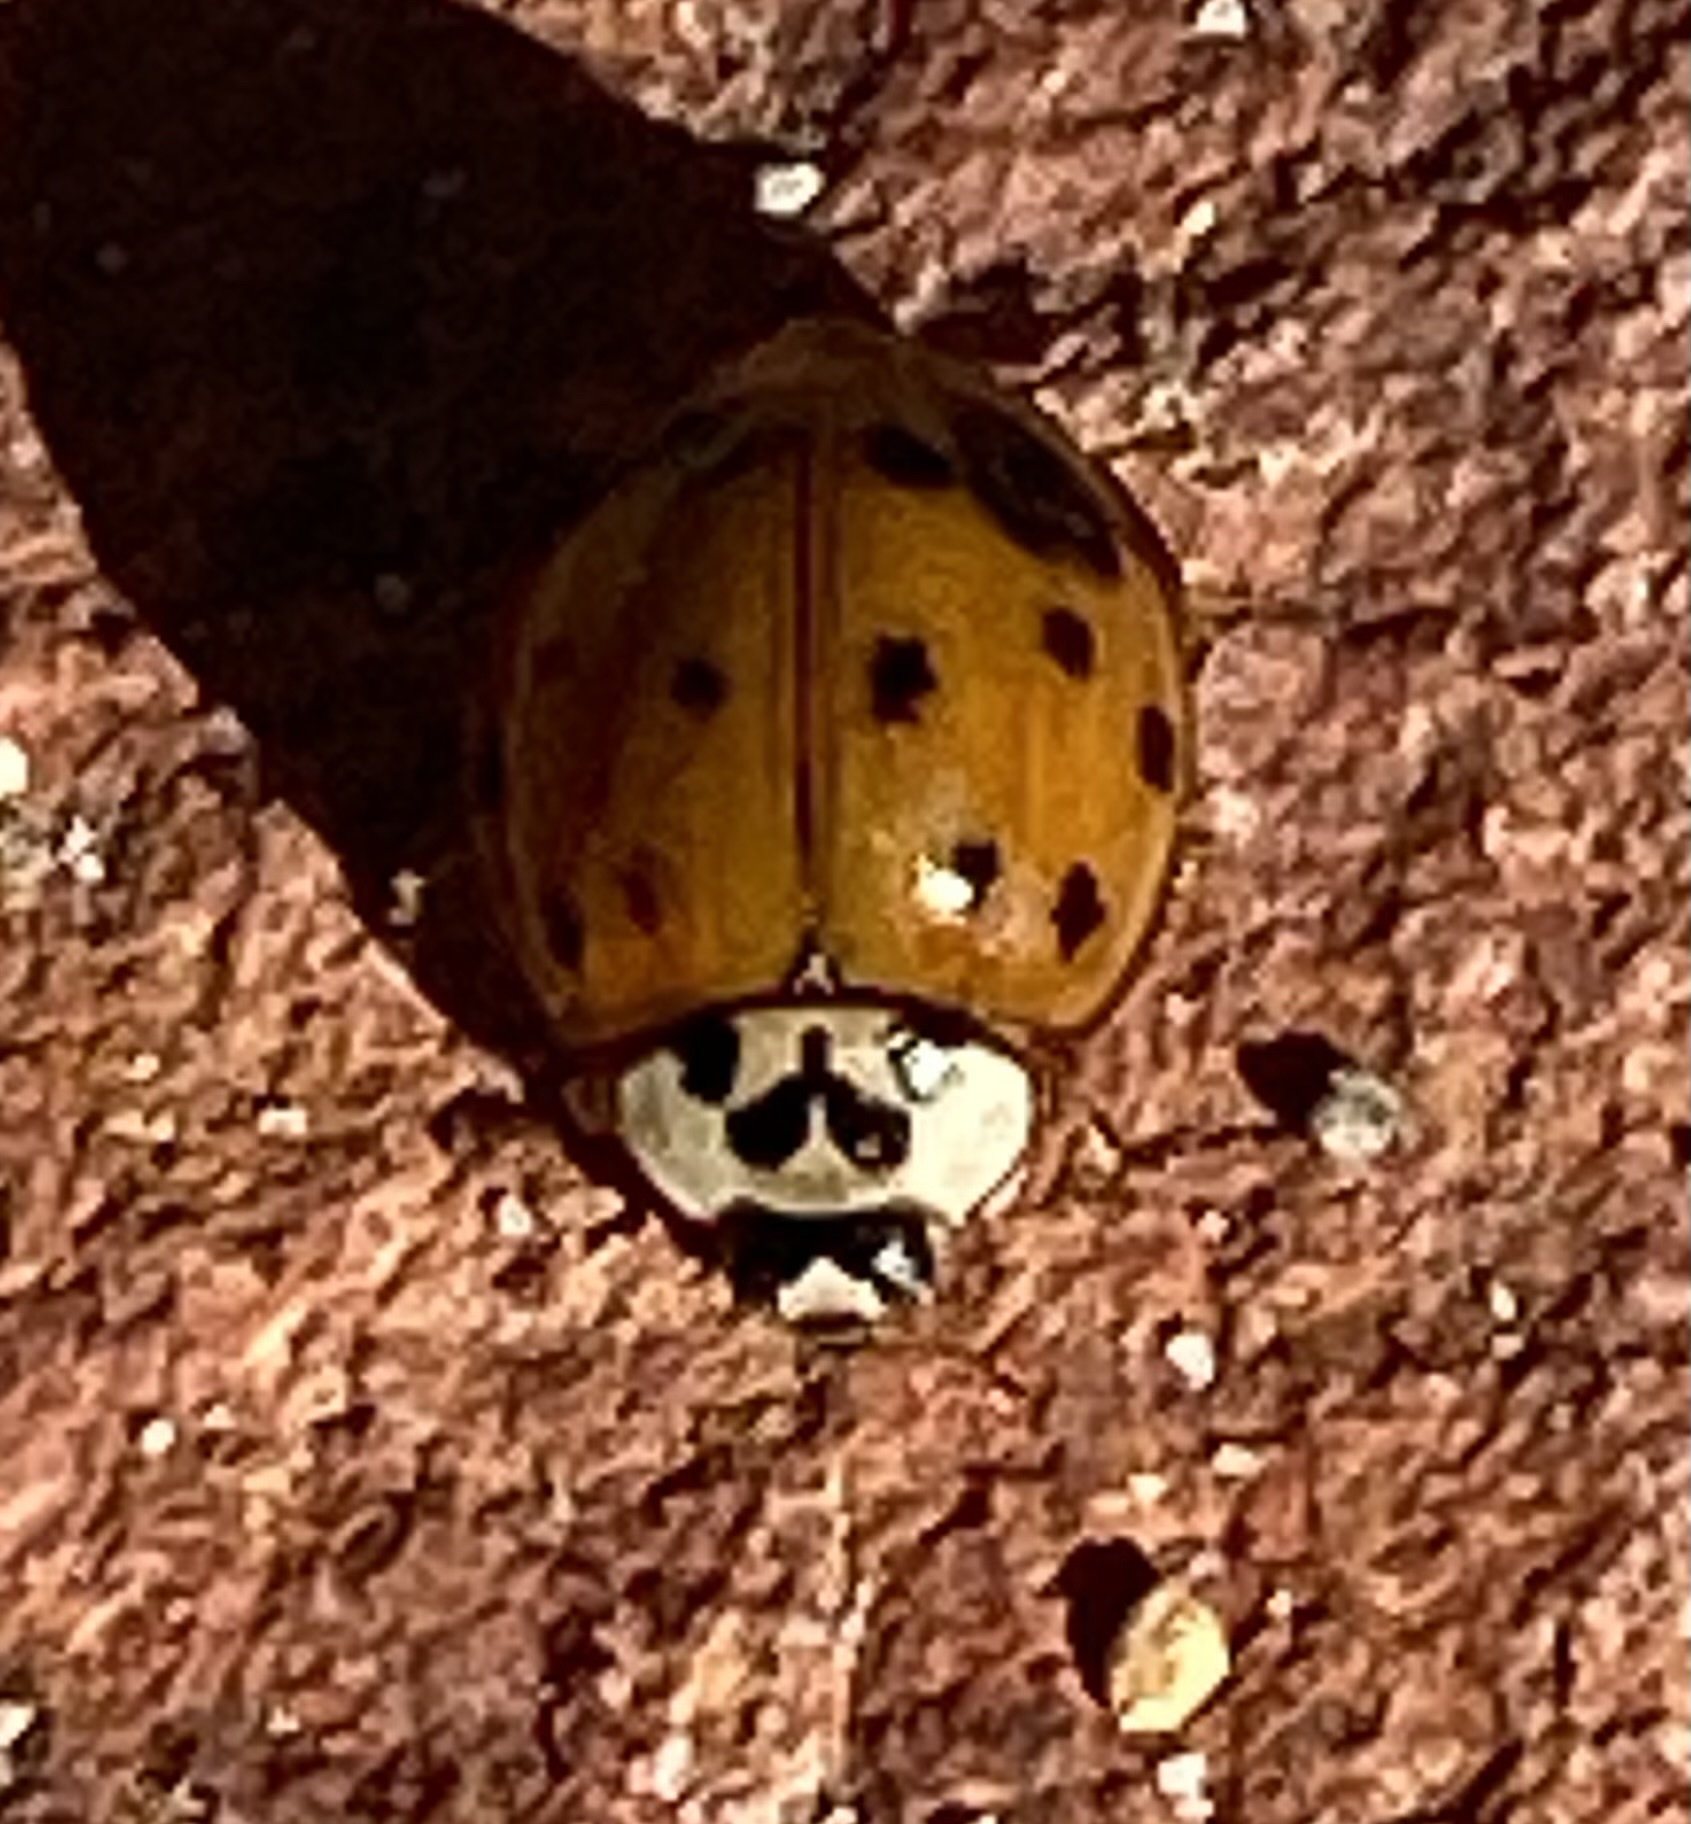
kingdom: Animalia
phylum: Arthropoda
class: Insecta
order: Coleoptera
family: Coccinellidae
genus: Harmonia
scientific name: Harmonia axyridis
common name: Harlequin ladybird
